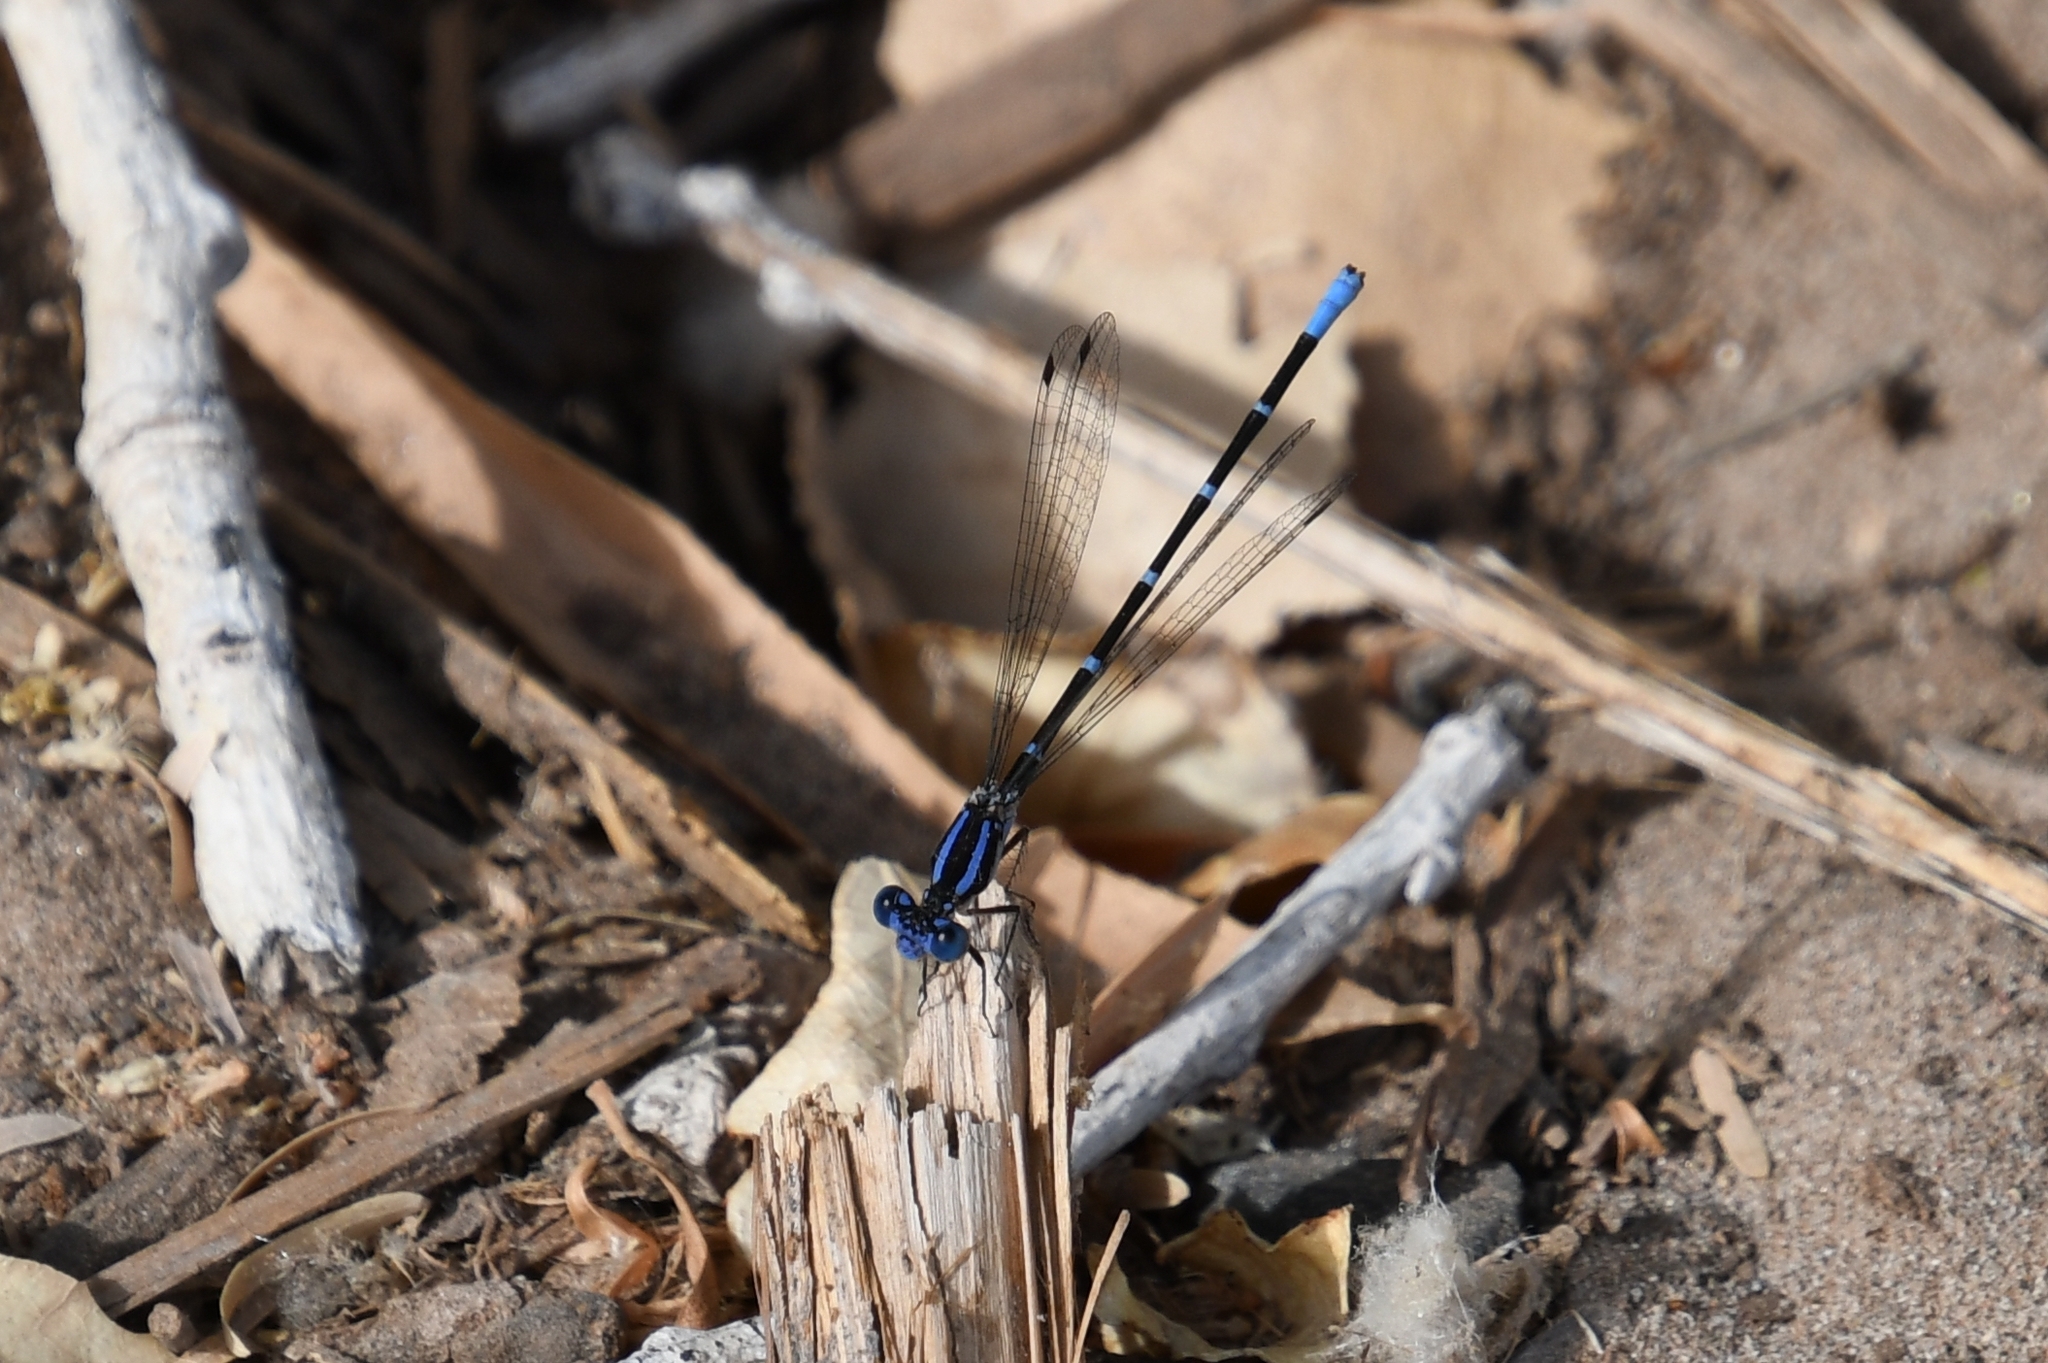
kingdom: Animalia
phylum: Arthropoda
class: Insecta
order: Odonata
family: Coenagrionidae
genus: Argia
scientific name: Argia sedula
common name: Blue-ringed dancer
